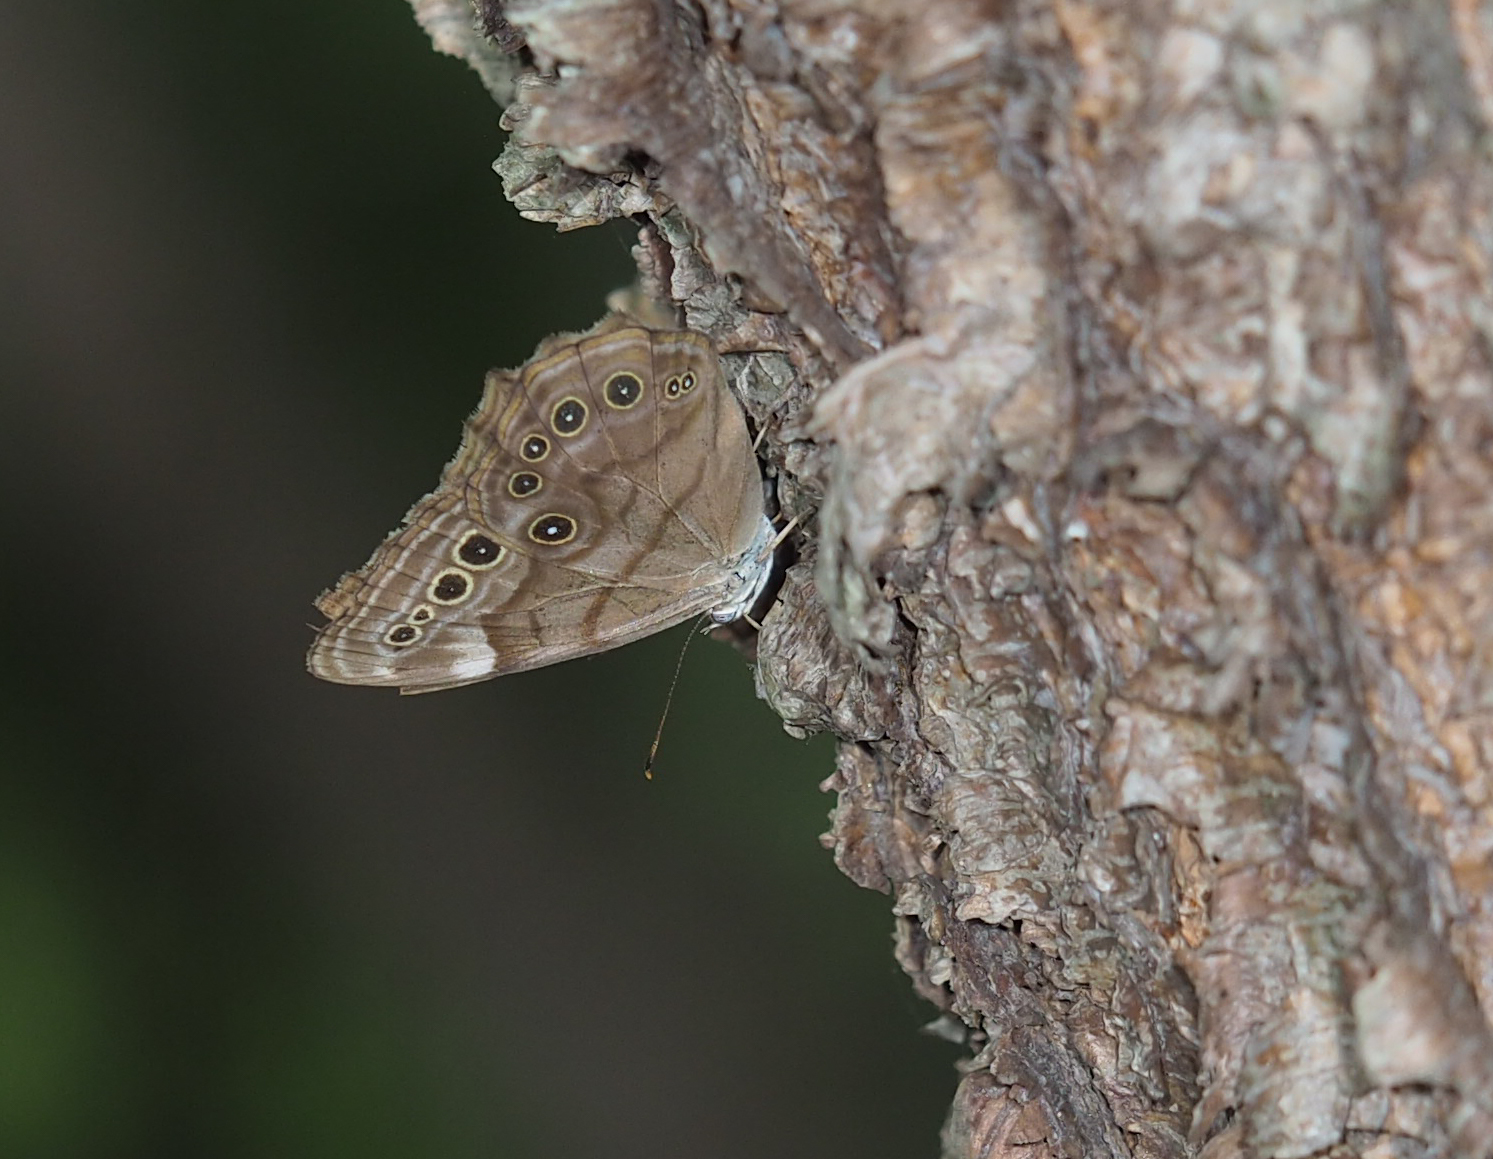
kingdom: Animalia
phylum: Arthropoda
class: Insecta
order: Lepidoptera
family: Nymphalidae
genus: Lethe
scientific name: Lethe anthedon
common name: Northern pearly-eye
